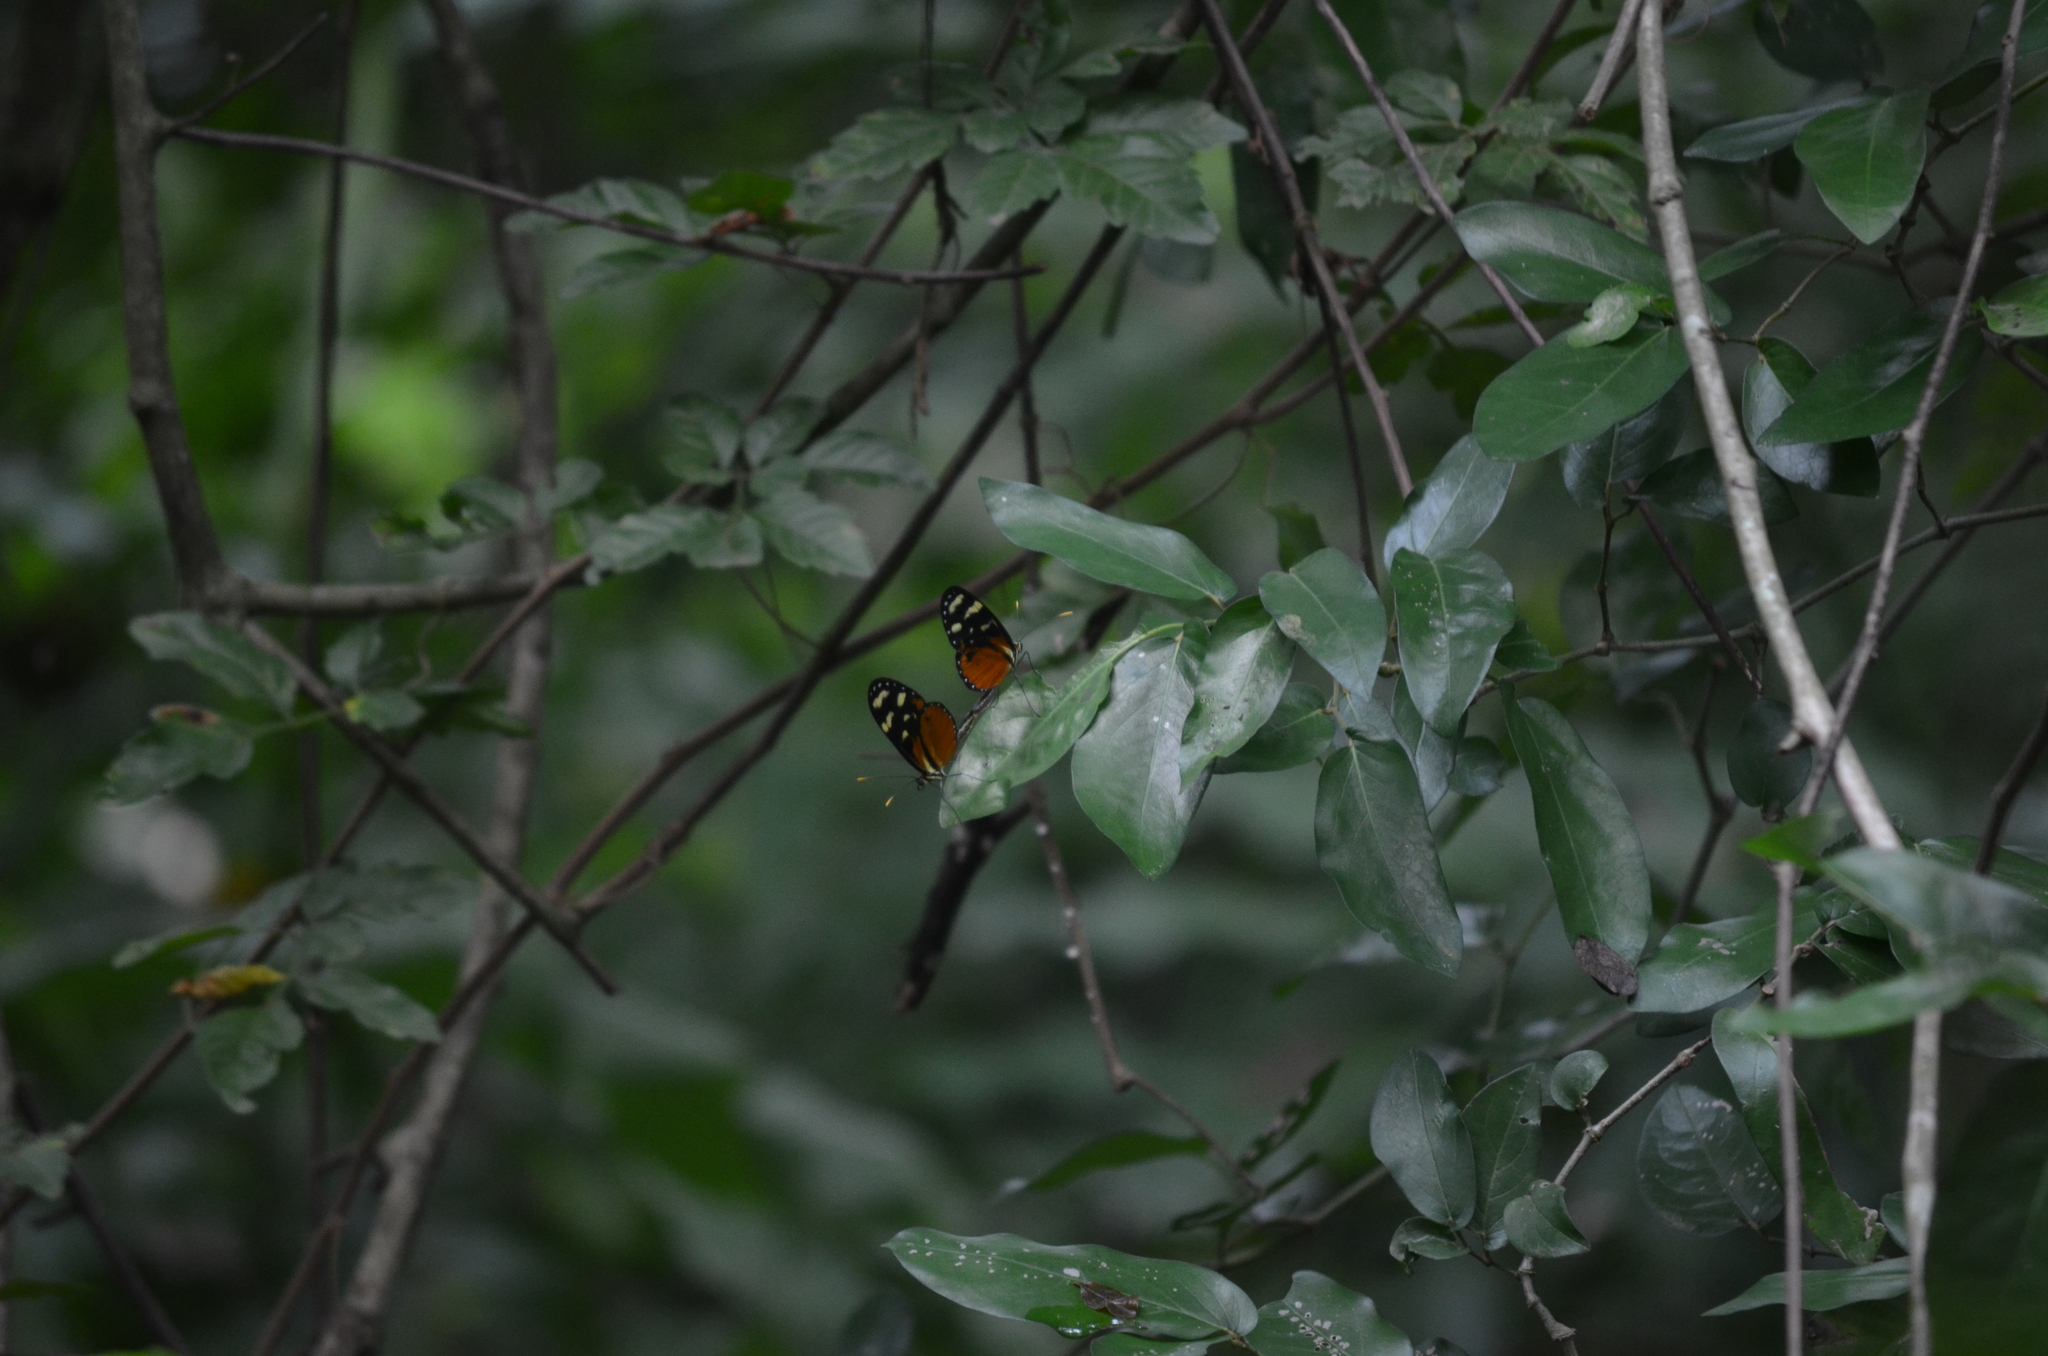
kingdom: Animalia
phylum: Arthropoda
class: Insecta
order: Lepidoptera
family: Nymphalidae
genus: Mechanitis
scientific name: Mechanitis polymnia
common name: Disturbed tigerwing
